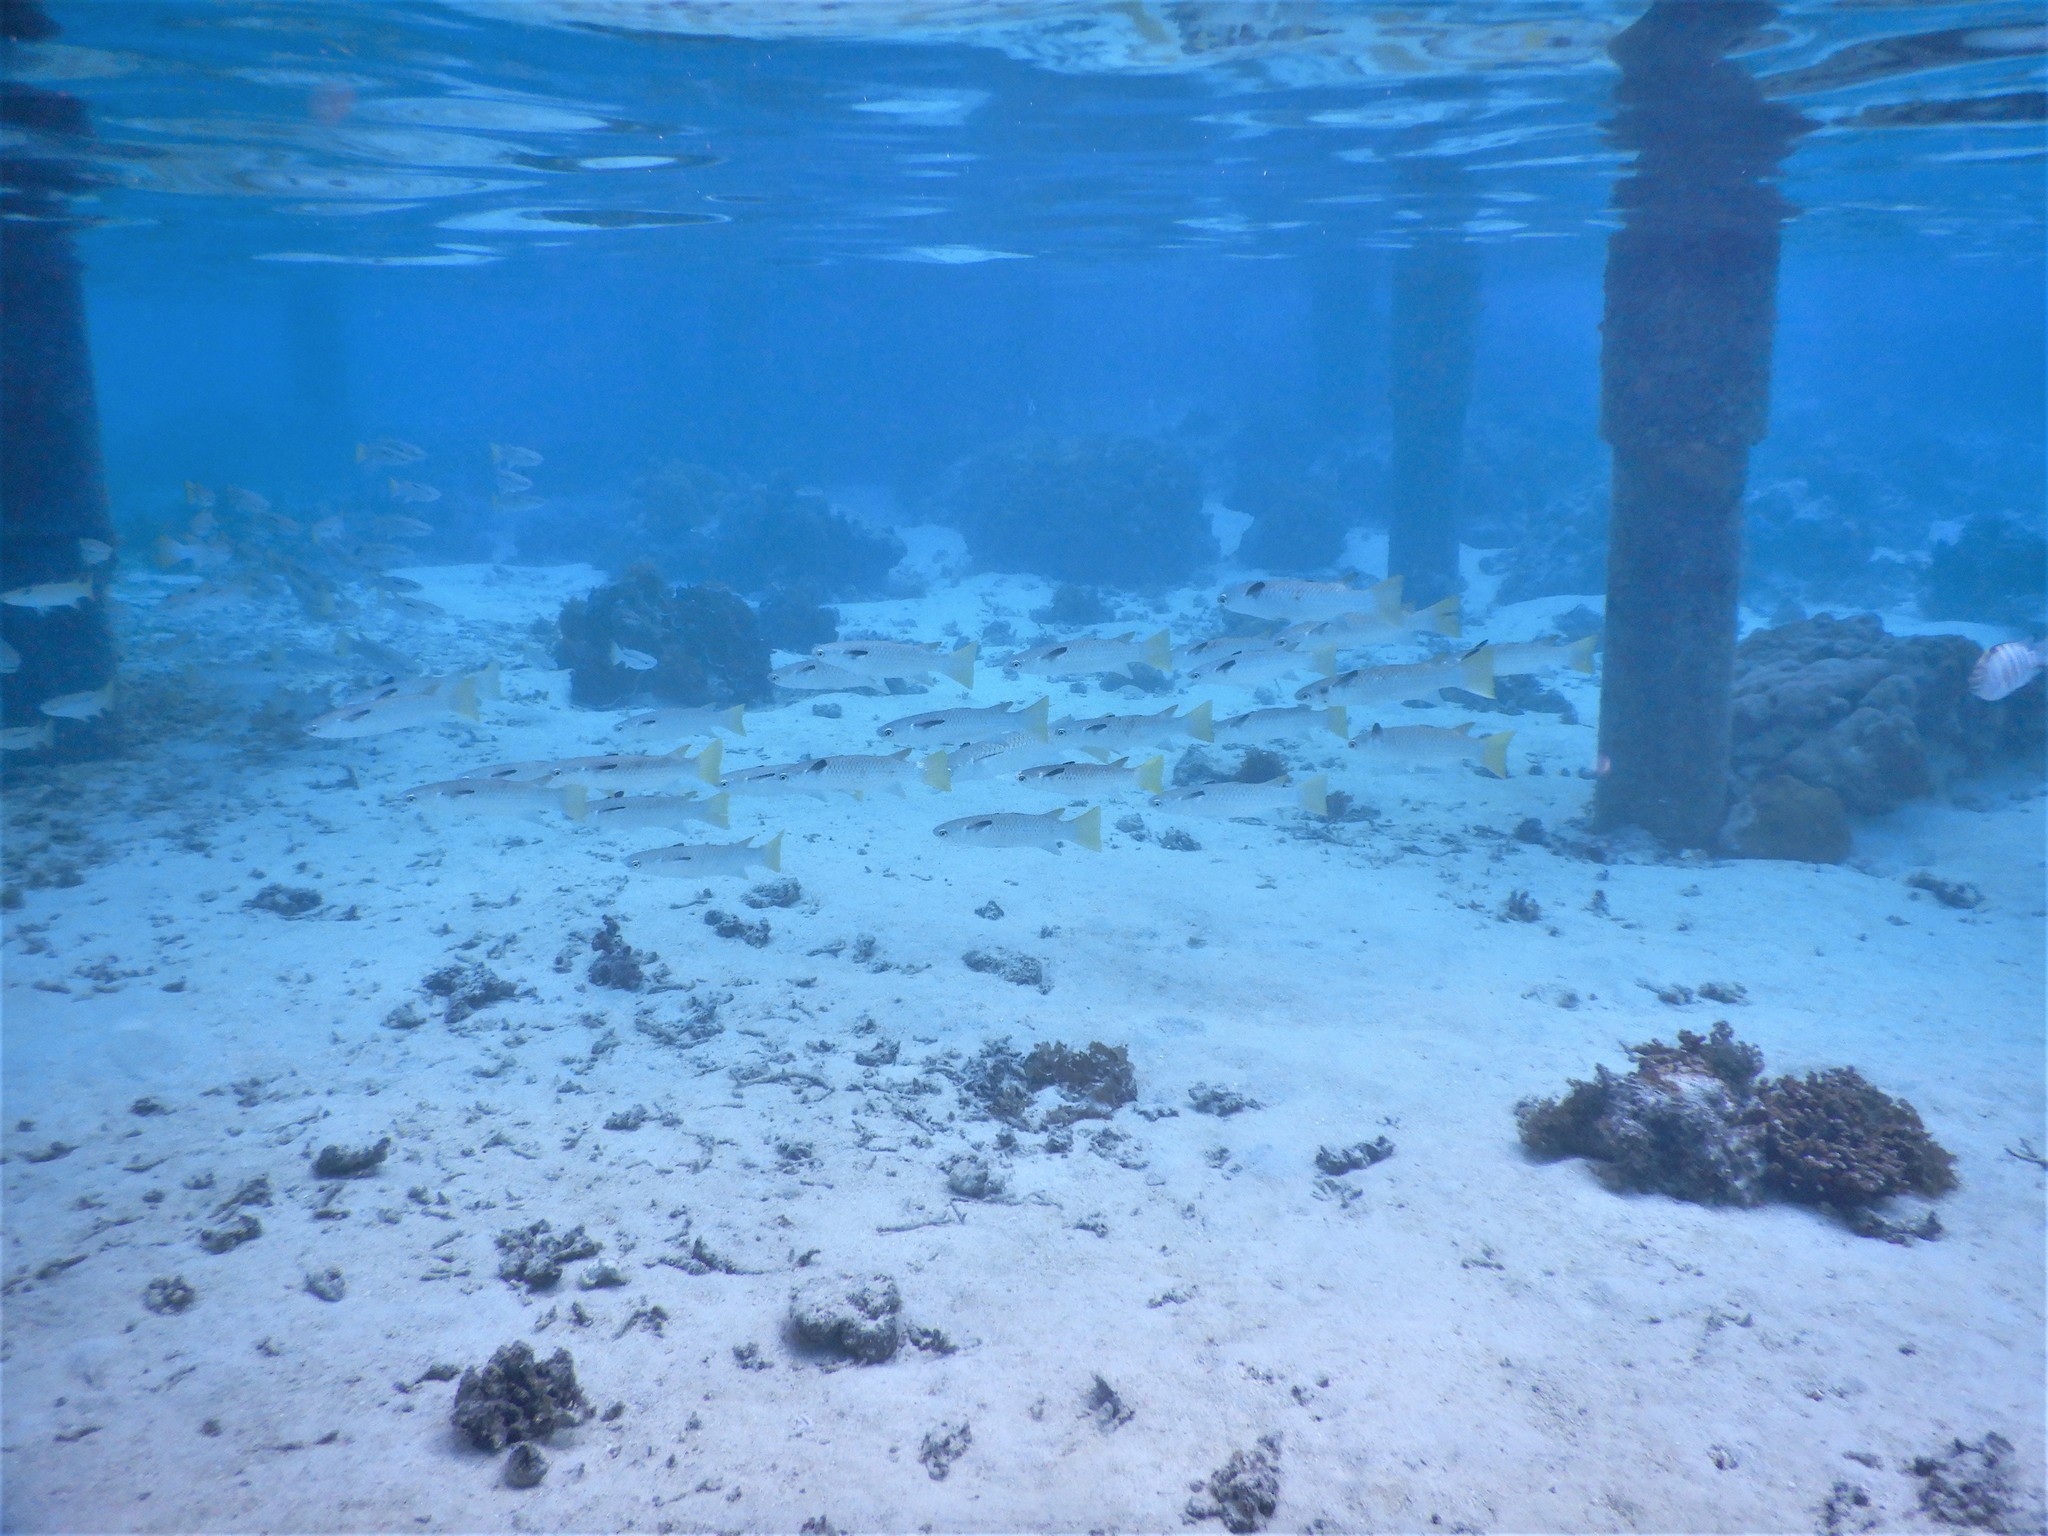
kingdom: Animalia
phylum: Chordata
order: Mugiliformes
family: Mugilidae
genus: Ellochelon
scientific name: Ellochelon vaigiensis
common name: Squaretail mullet
